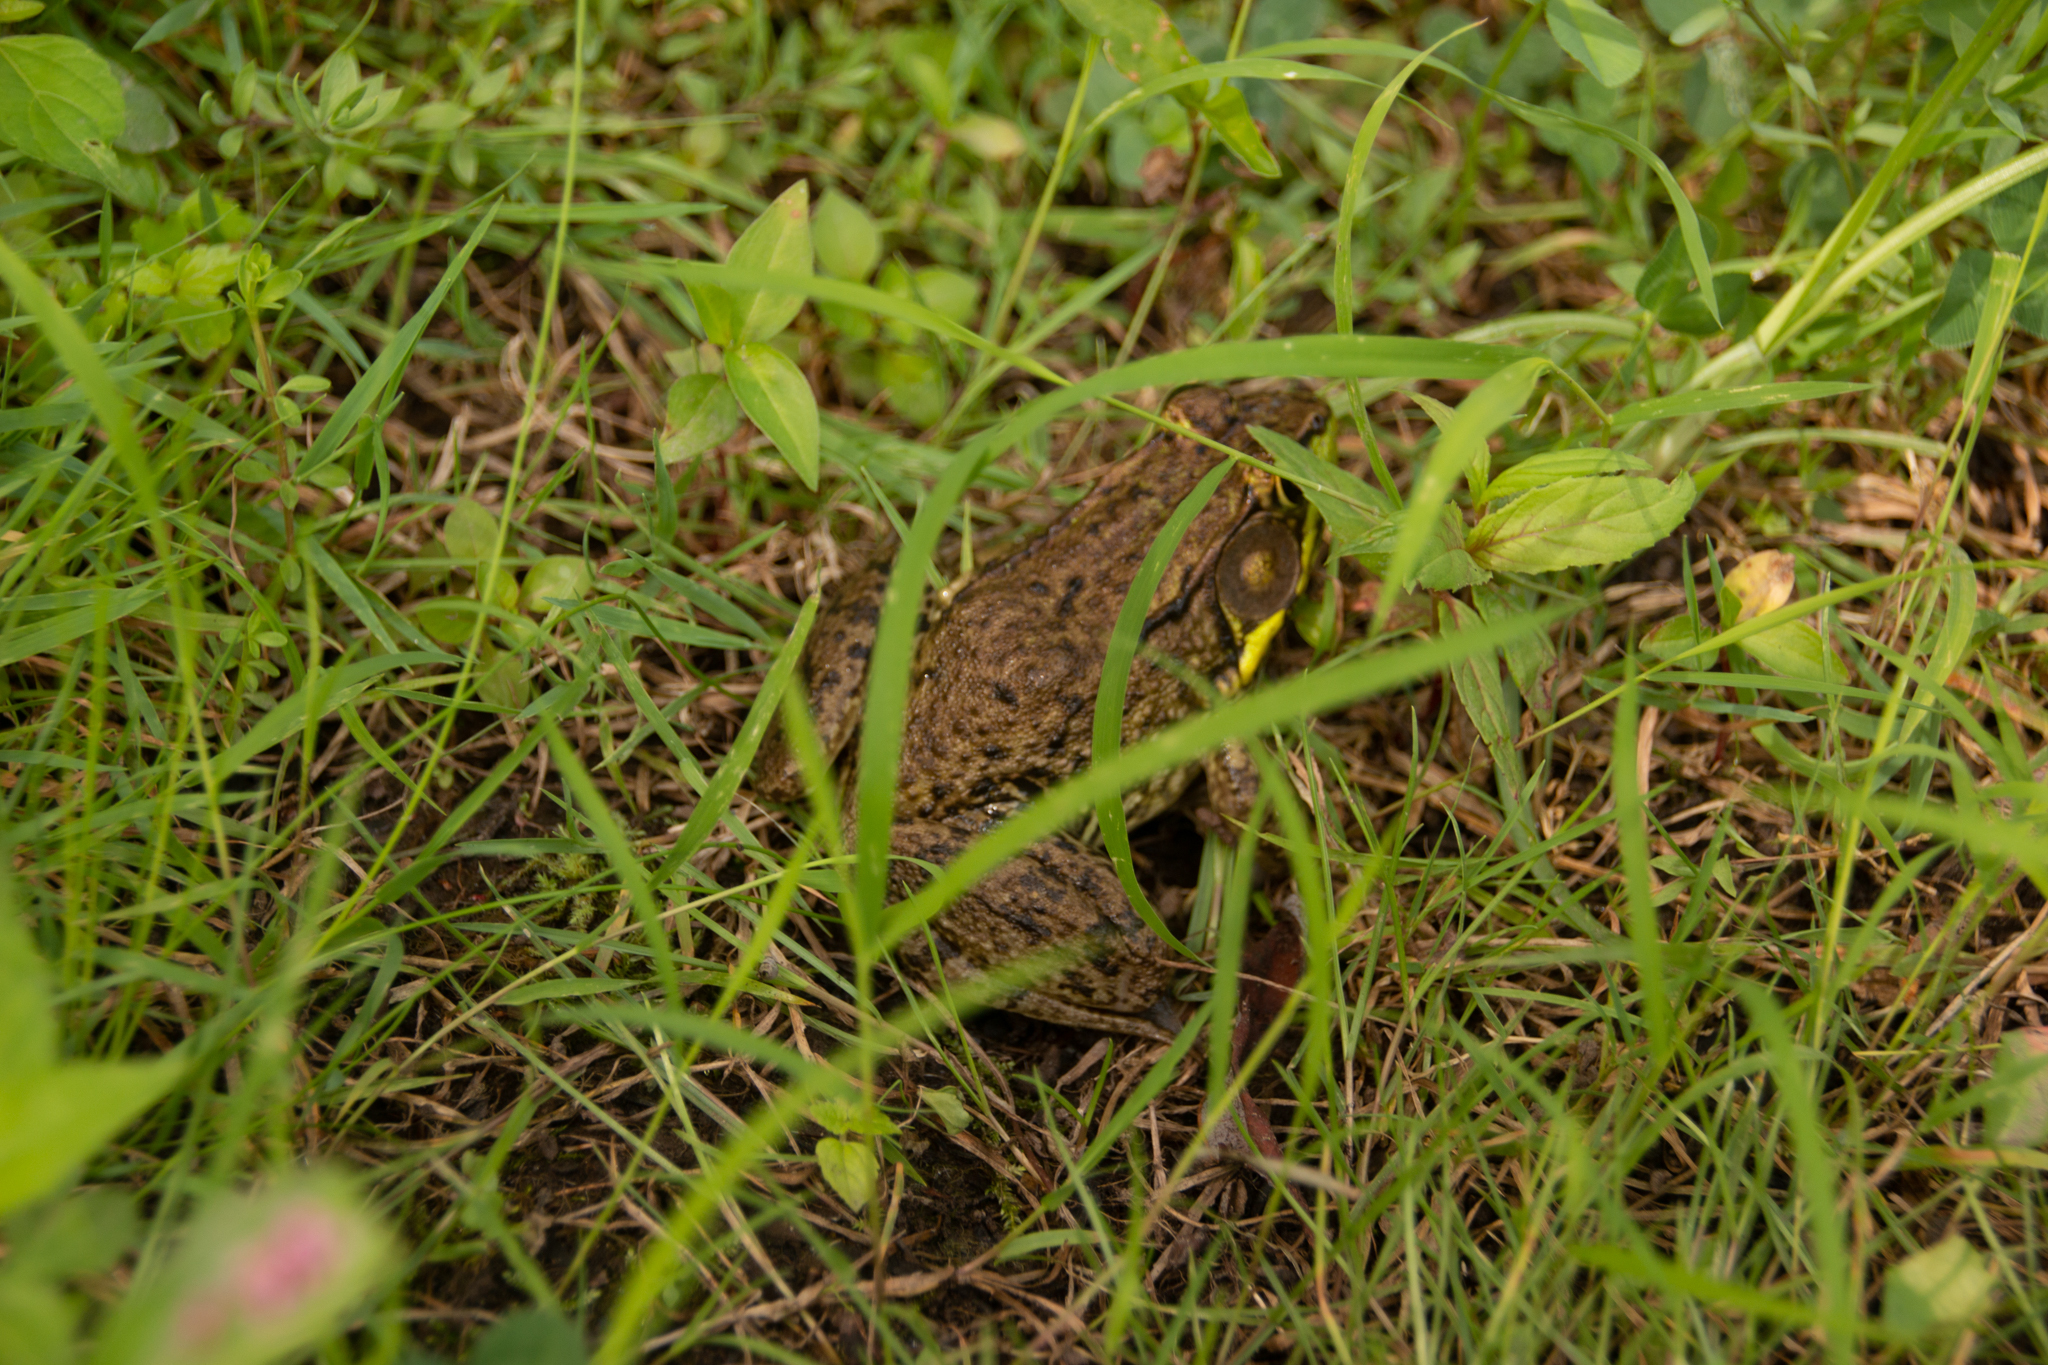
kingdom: Animalia
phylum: Chordata
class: Amphibia
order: Anura
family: Ranidae
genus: Lithobates
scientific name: Lithobates clamitans
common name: Green frog
